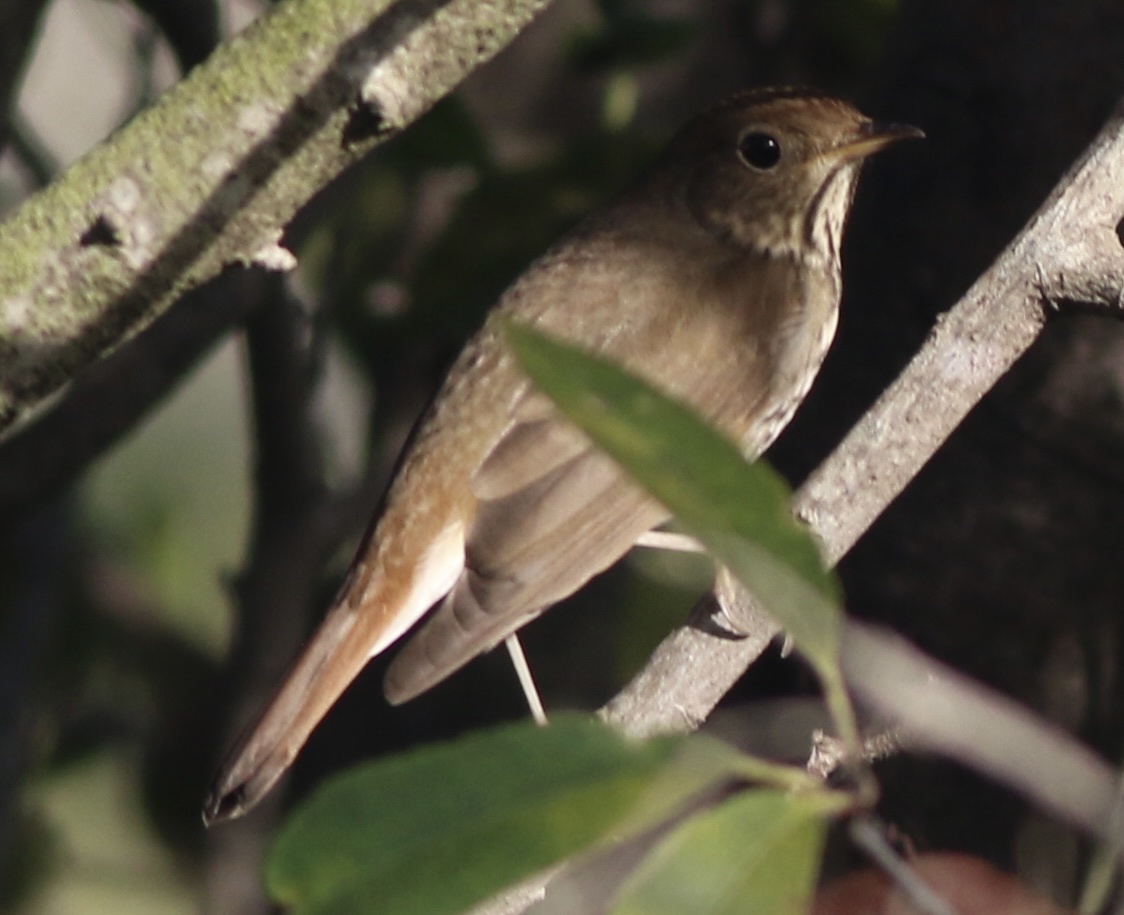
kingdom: Animalia
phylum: Chordata
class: Aves
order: Passeriformes
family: Turdidae
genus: Catharus
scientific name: Catharus guttatus
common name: Hermit thrush
